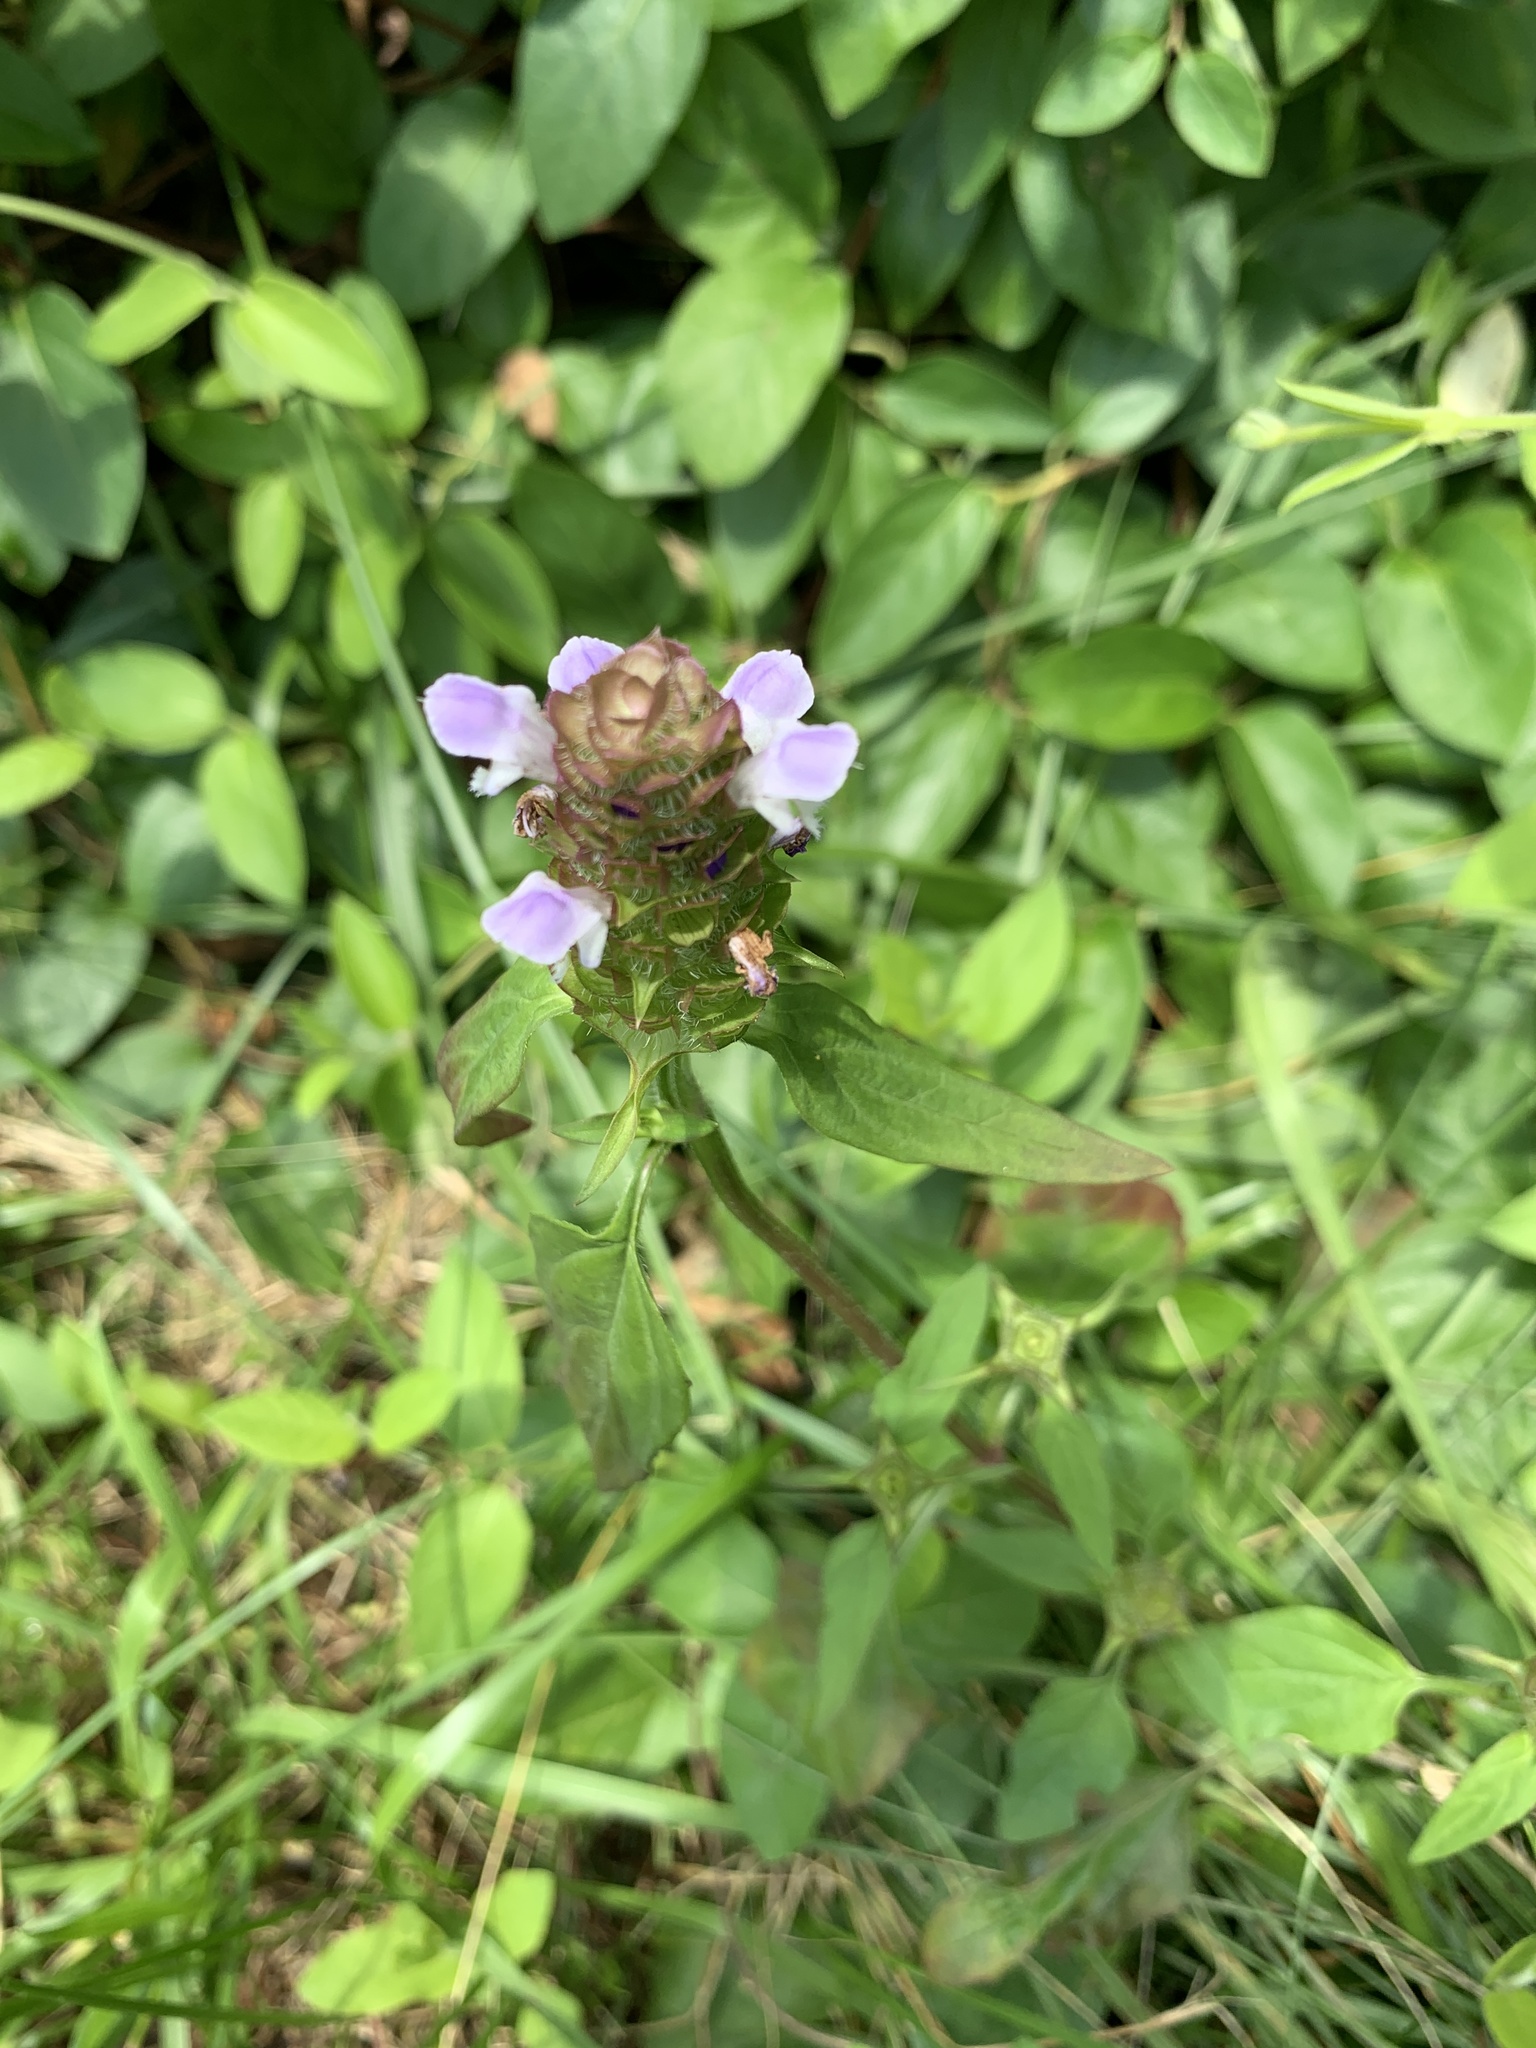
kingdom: Plantae
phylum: Tracheophyta
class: Magnoliopsida
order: Lamiales
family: Lamiaceae
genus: Prunella
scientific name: Prunella vulgaris
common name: Heal-all
